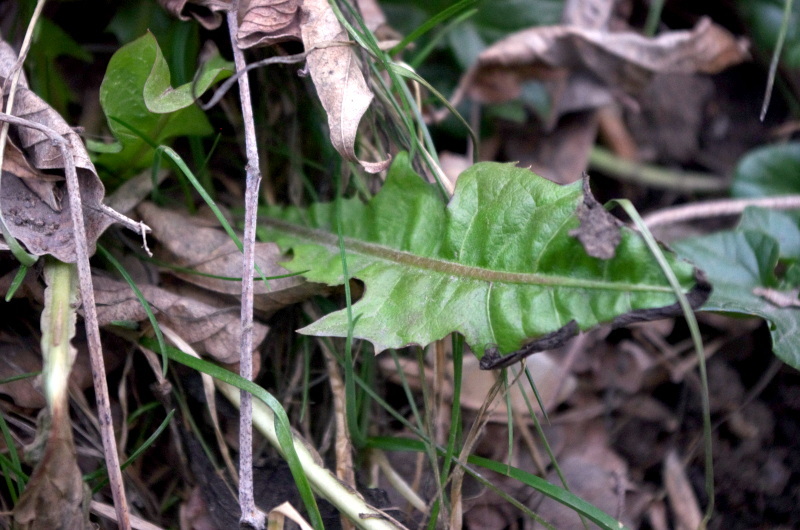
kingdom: Plantae
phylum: Tracheophyta
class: Magnoliopsida
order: Asterales
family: Asteraceae
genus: Taraxacum
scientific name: Taraxacum officinale
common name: Common dandelion
